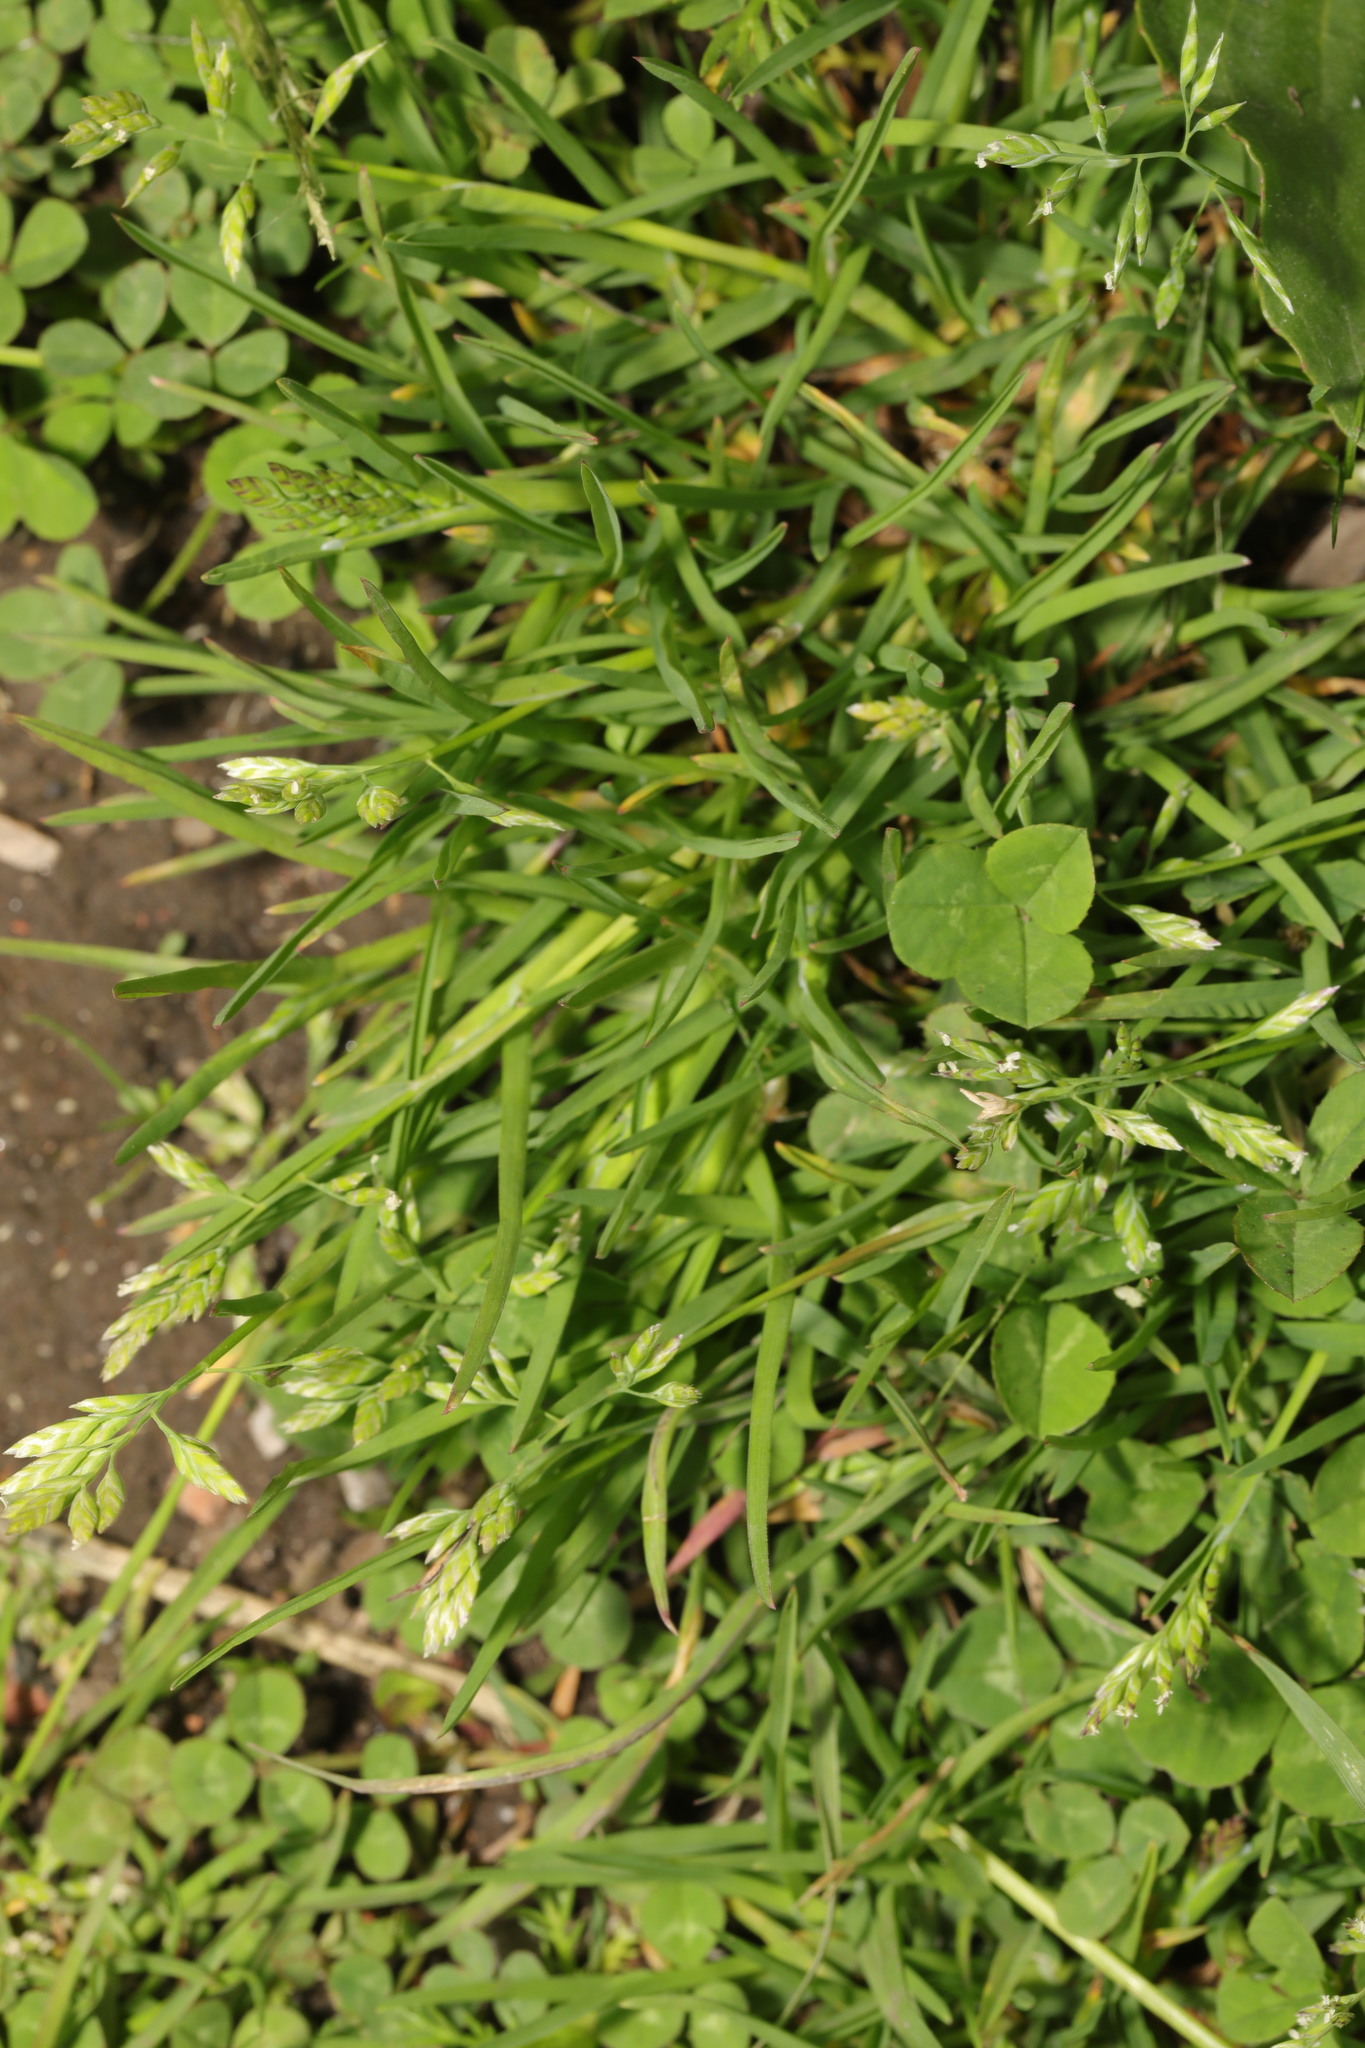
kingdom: Plantae
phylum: Tracheophyta
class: Liliopsida
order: Poales
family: Poaceae
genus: Poa
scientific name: Poa annua
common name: Annual bluegrass
